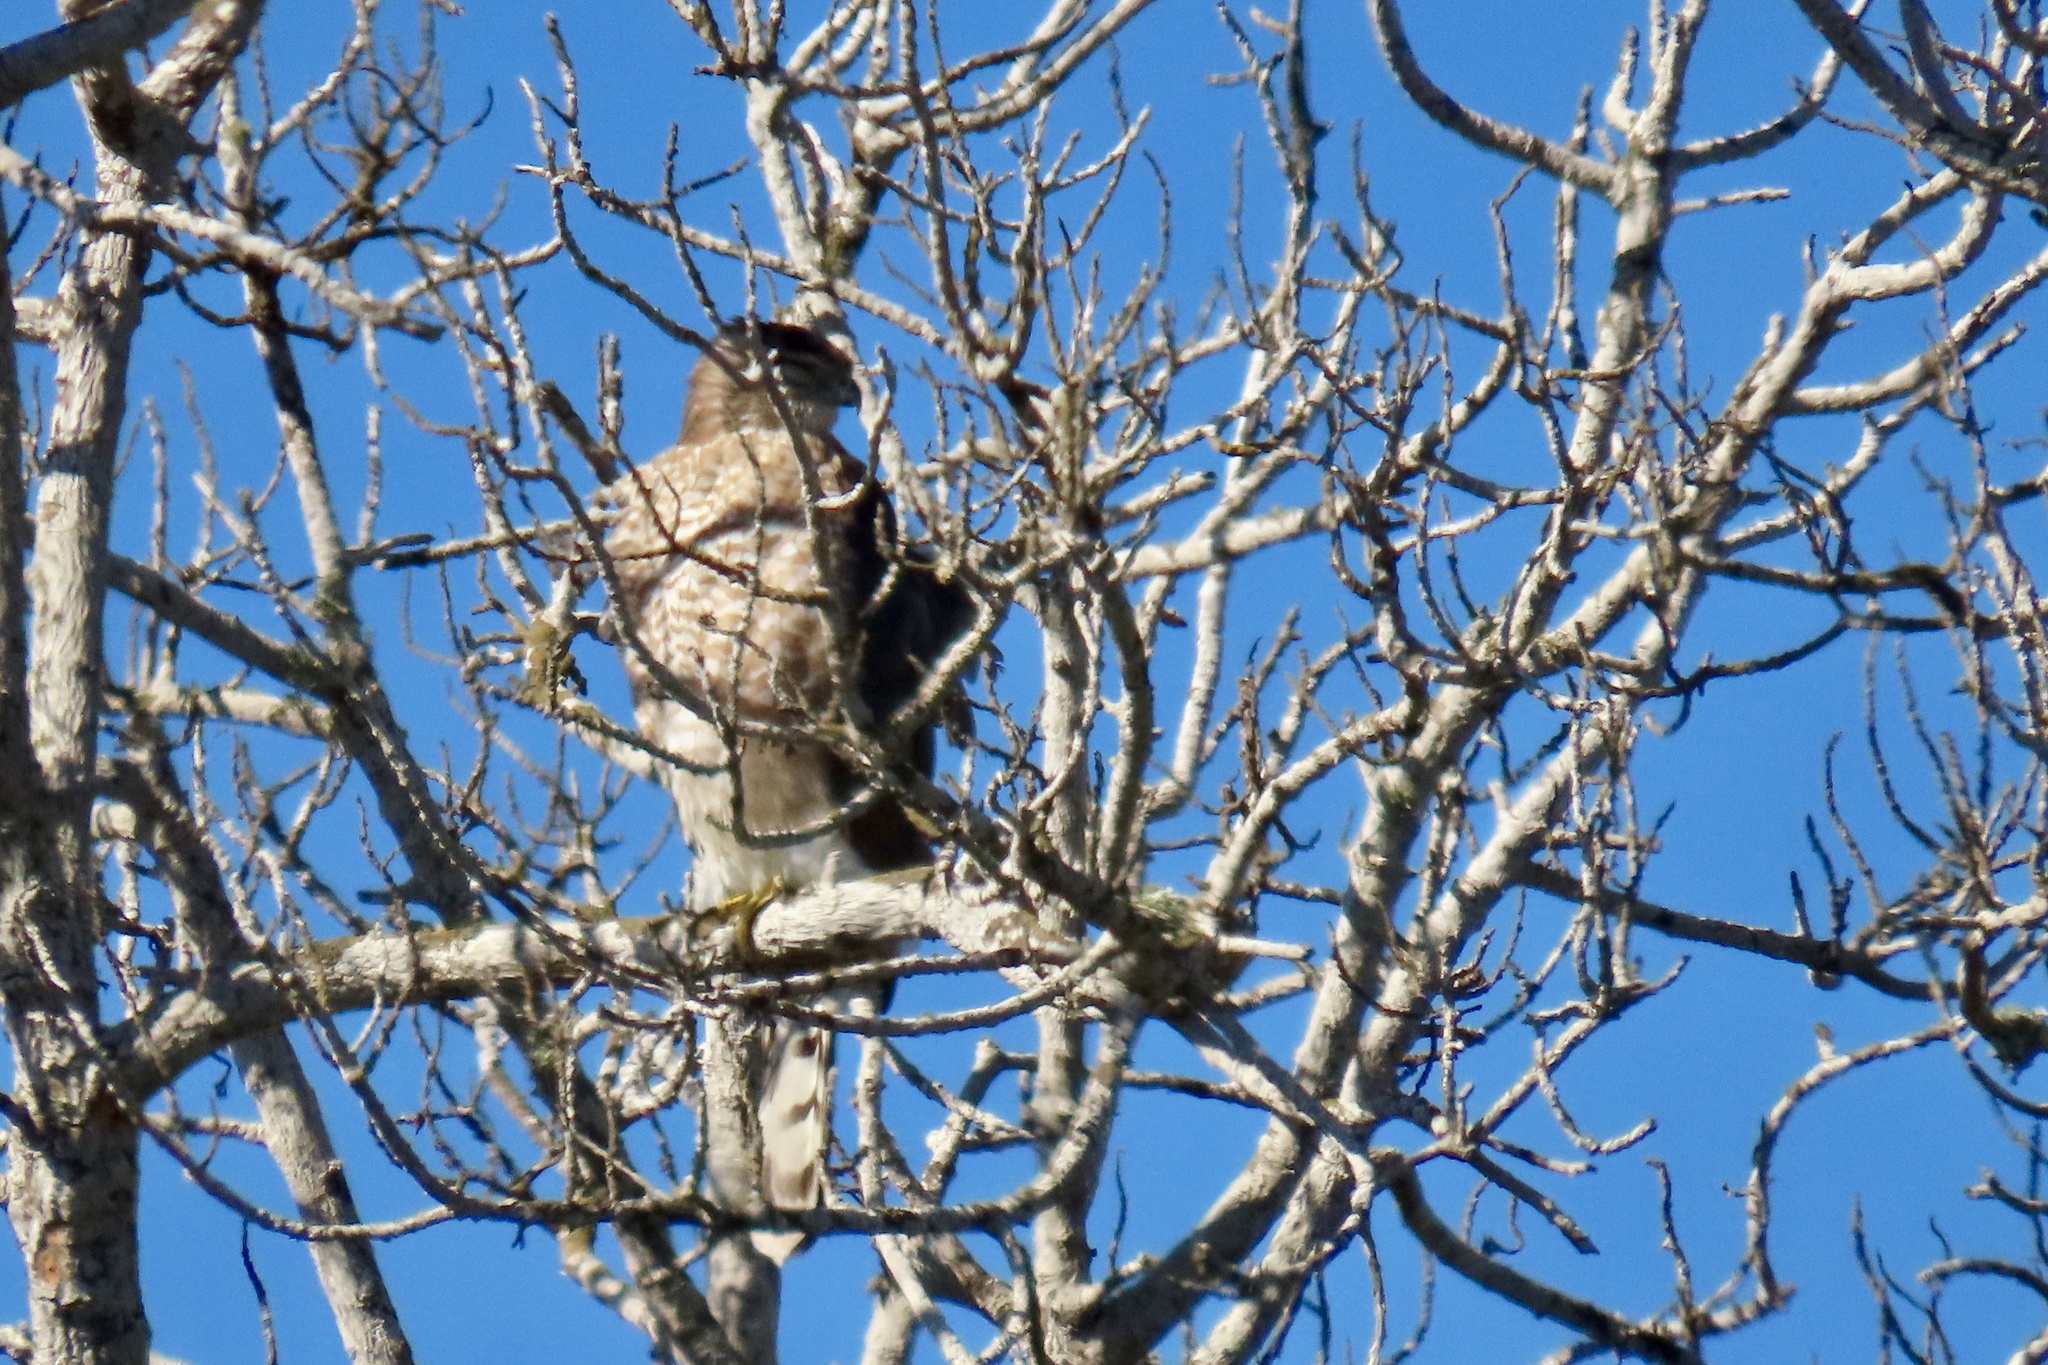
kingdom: Animalia
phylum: Chordata
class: Aves
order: Accipitriformes
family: Accipitridae
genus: Accipiter
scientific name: Accipiter cooperii
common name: Cooper's hawk
